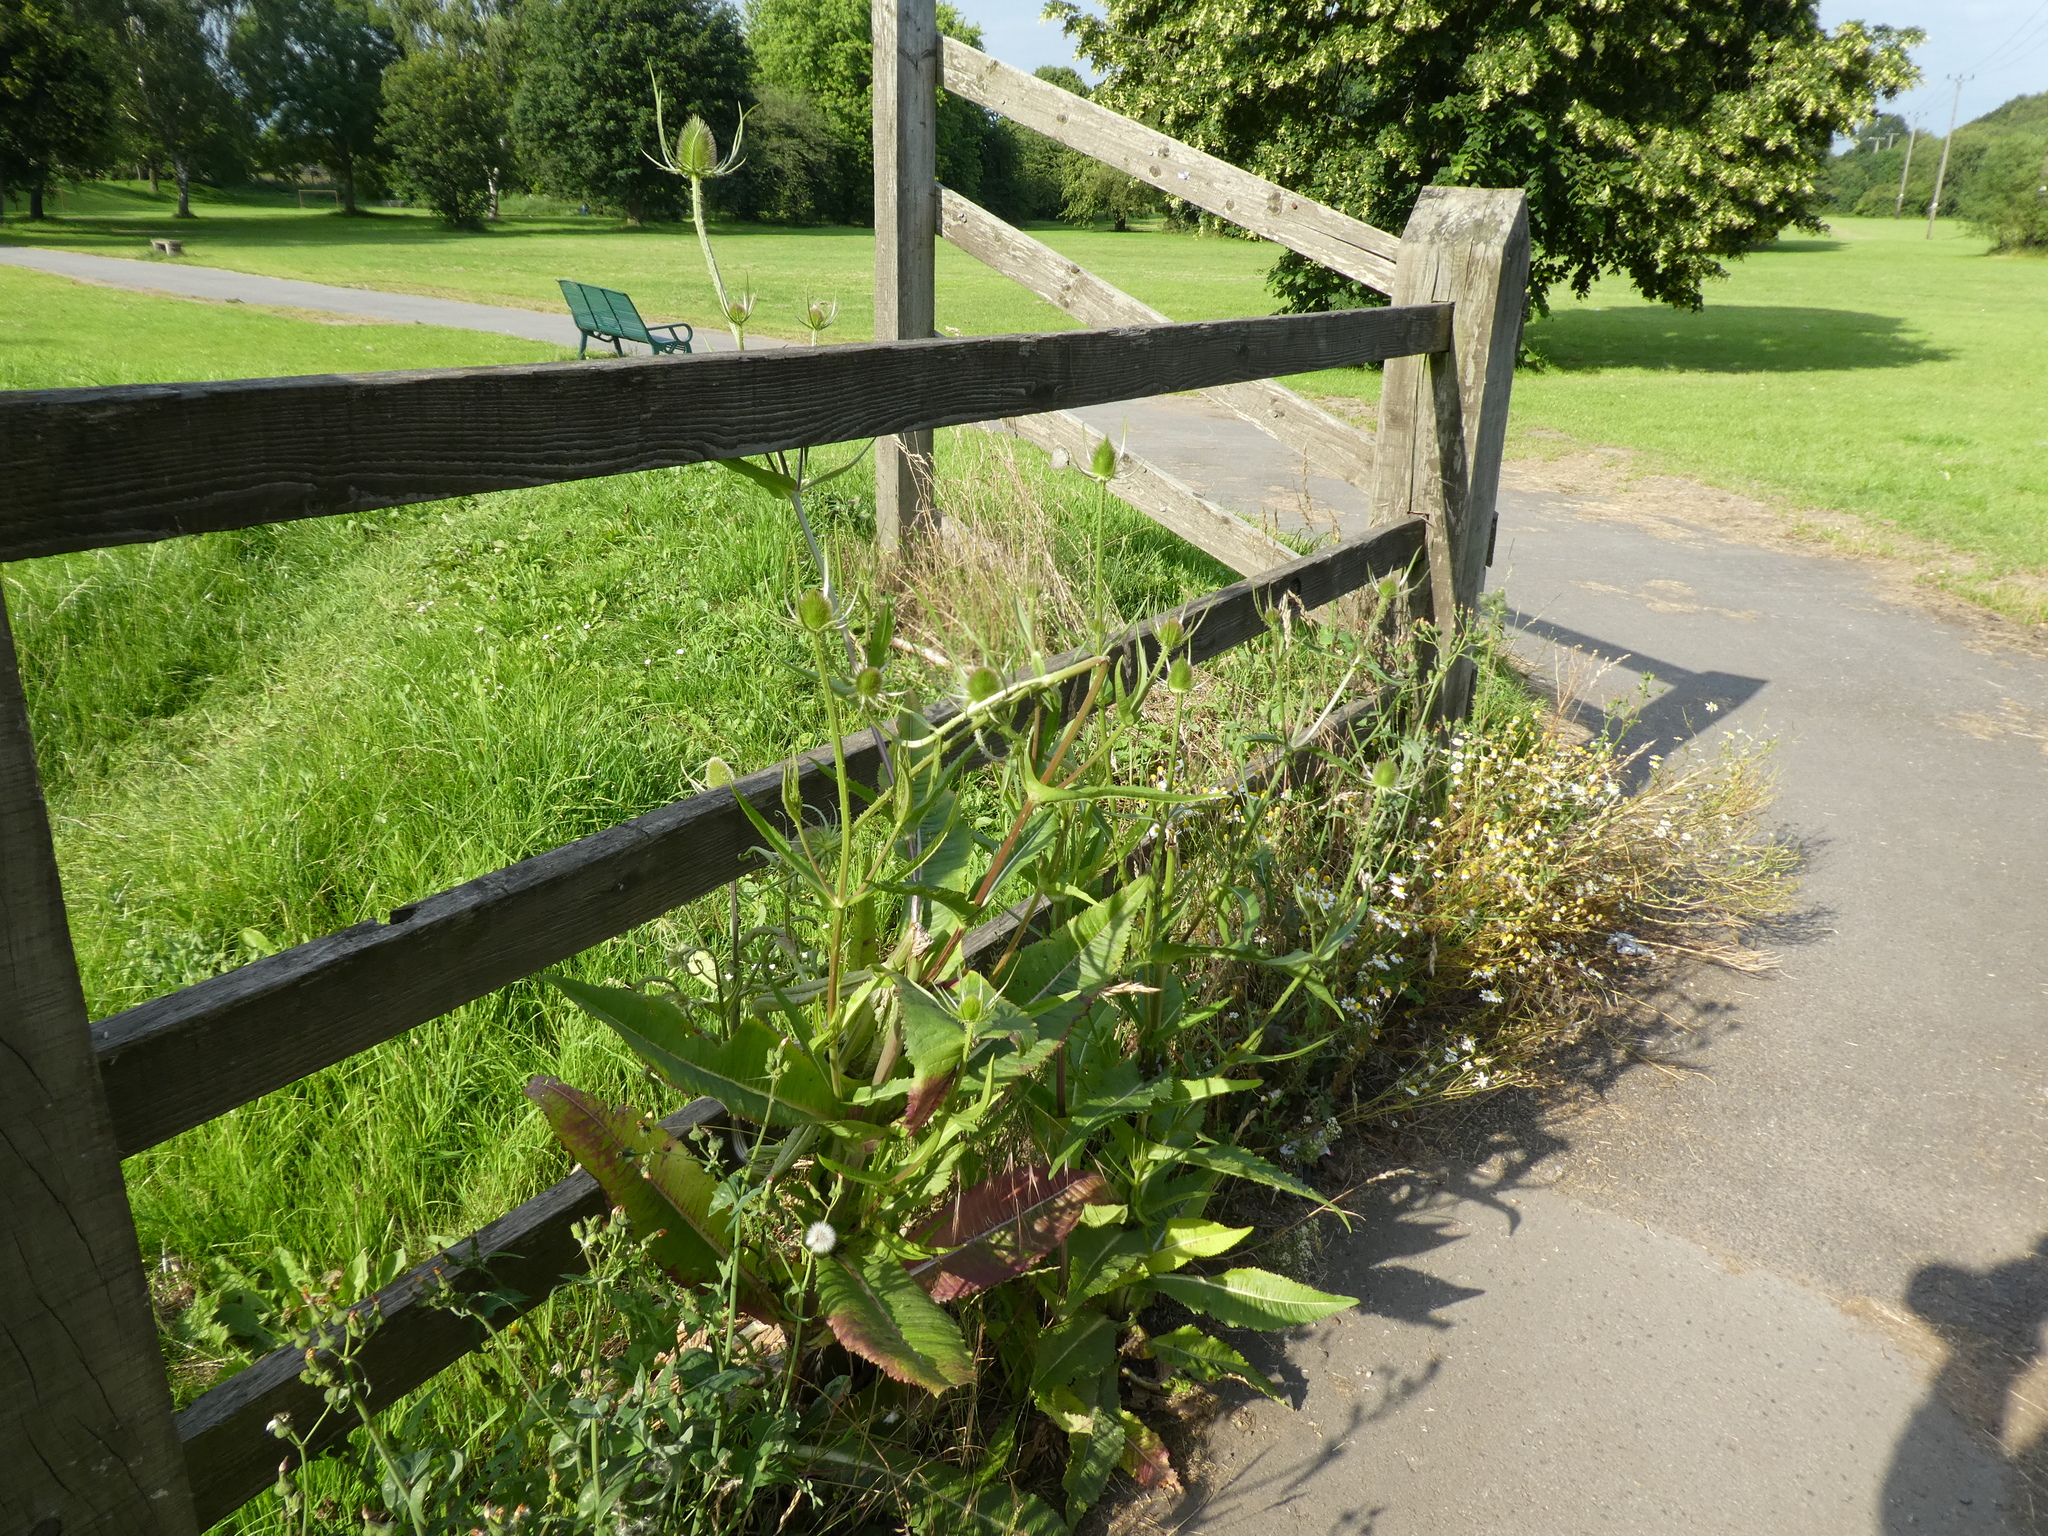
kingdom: Plantae
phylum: Tracheophyta
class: Magnoliopsida
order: Dipsacales
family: Caprifoliaceae
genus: Dipsacus
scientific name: Dipsacus fullonum
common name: Teasel
